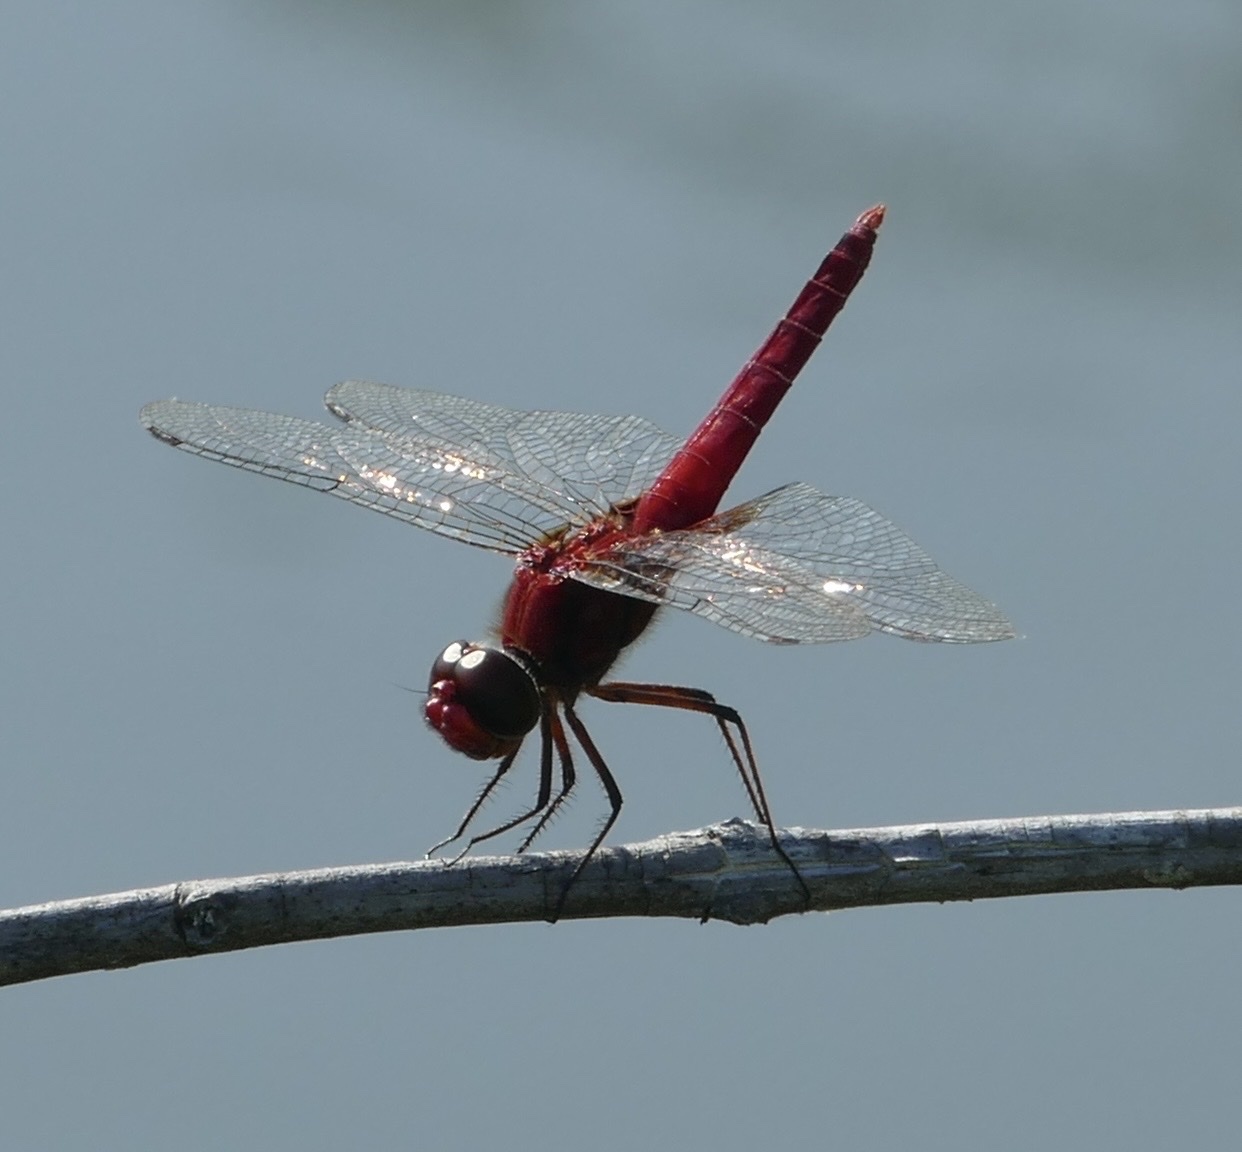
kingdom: Animalia
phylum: Arthropoda
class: Insecta
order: Odonata
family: Libellulidae
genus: Urothemis
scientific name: Urothemis bisignata
